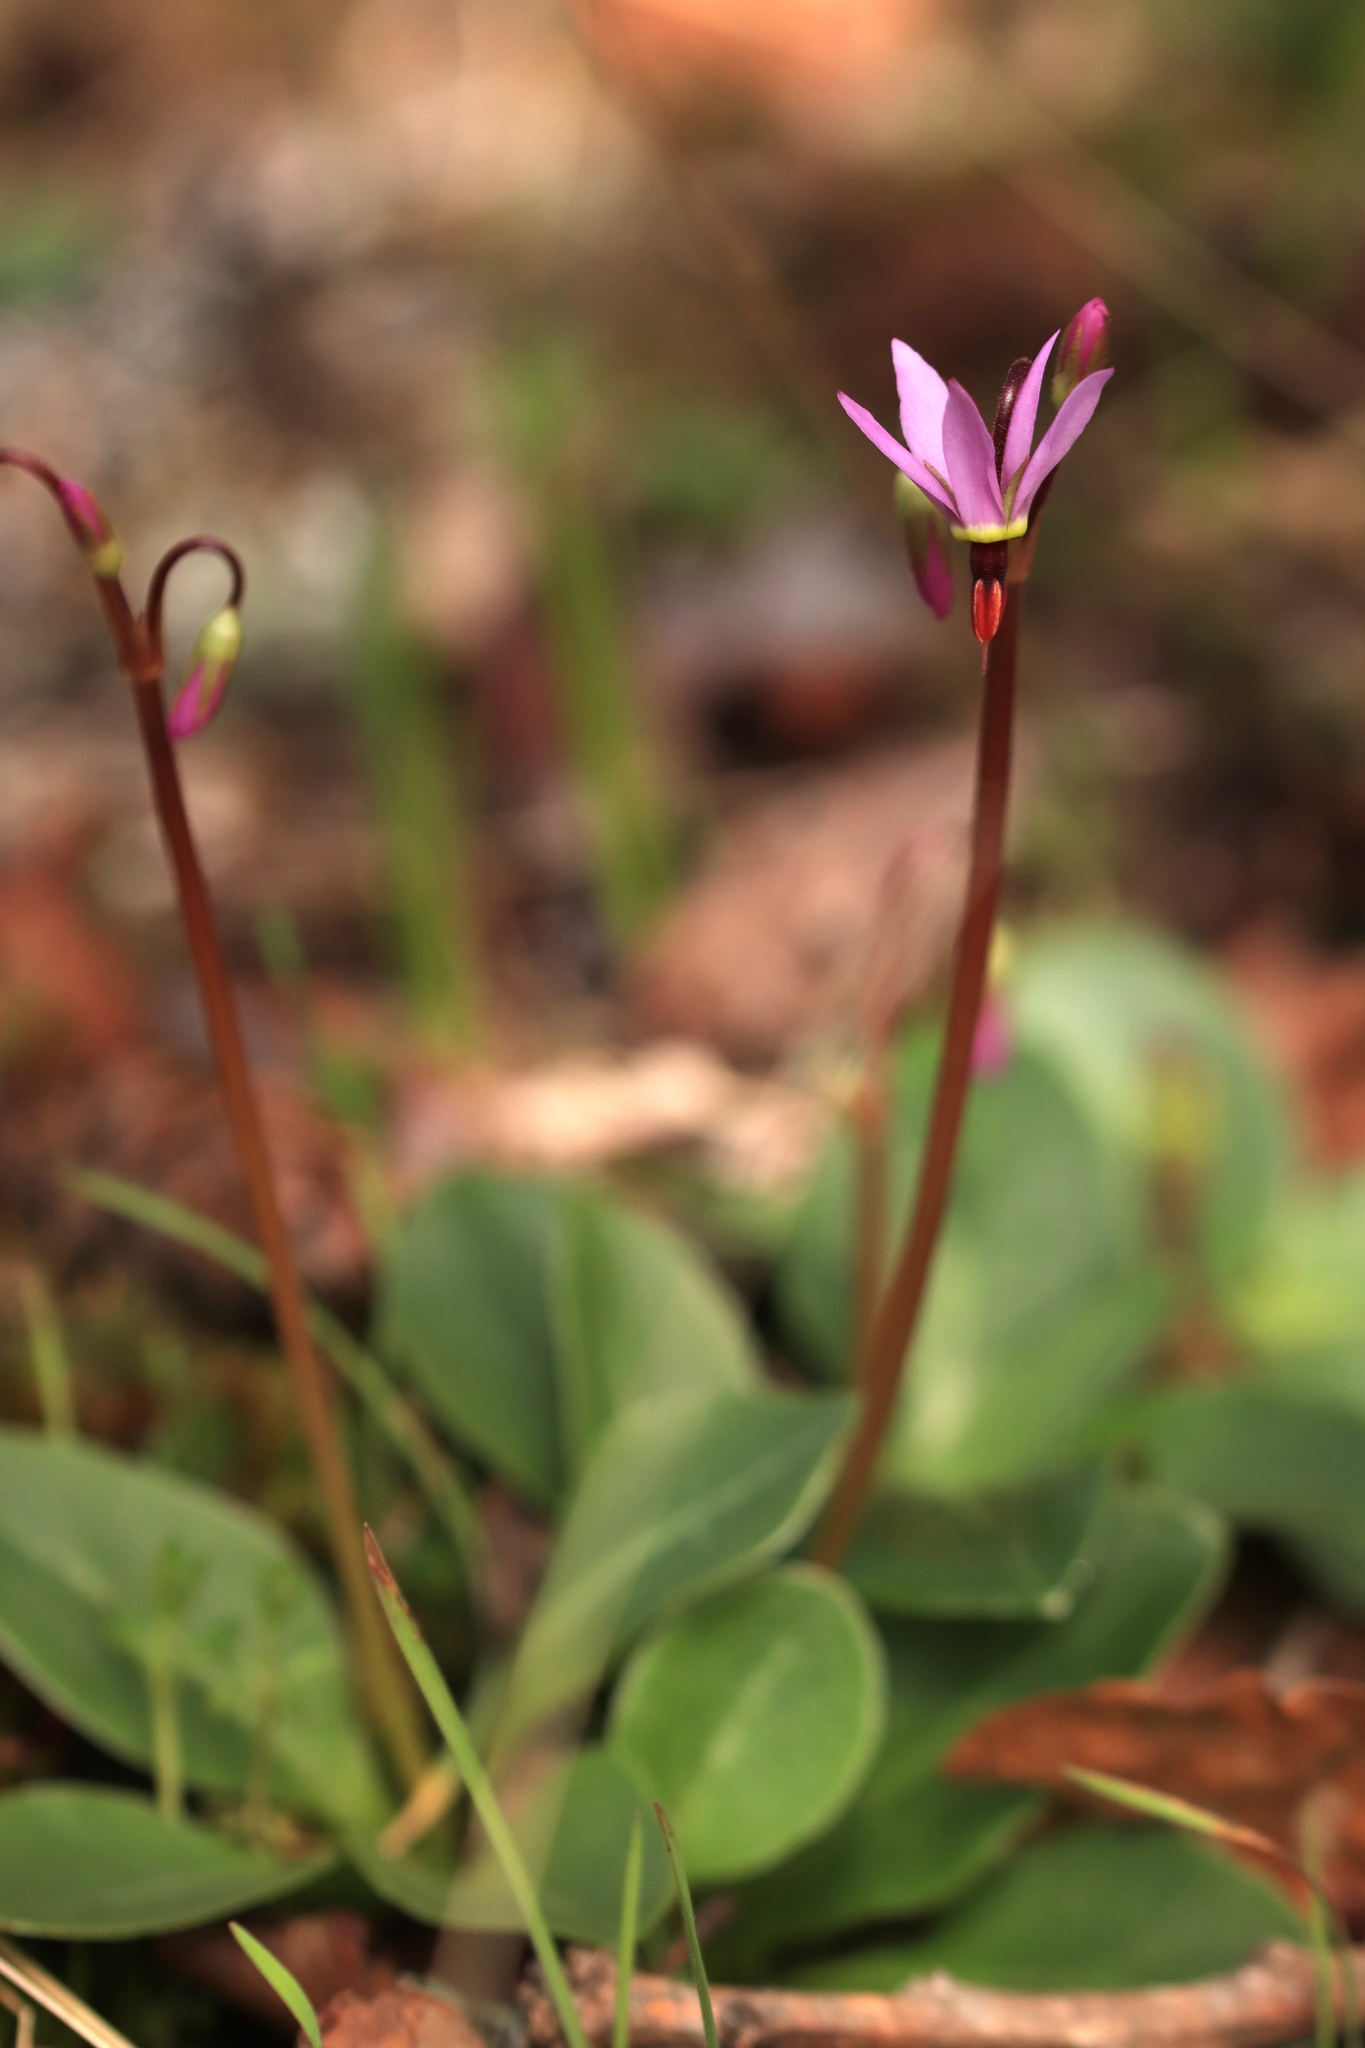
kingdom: Plantae
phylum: Tracheophyta
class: Magnoliopsida
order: Ericales
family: Primulaceae
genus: Dodecatheon
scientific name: Dodecatheon hendersonii
